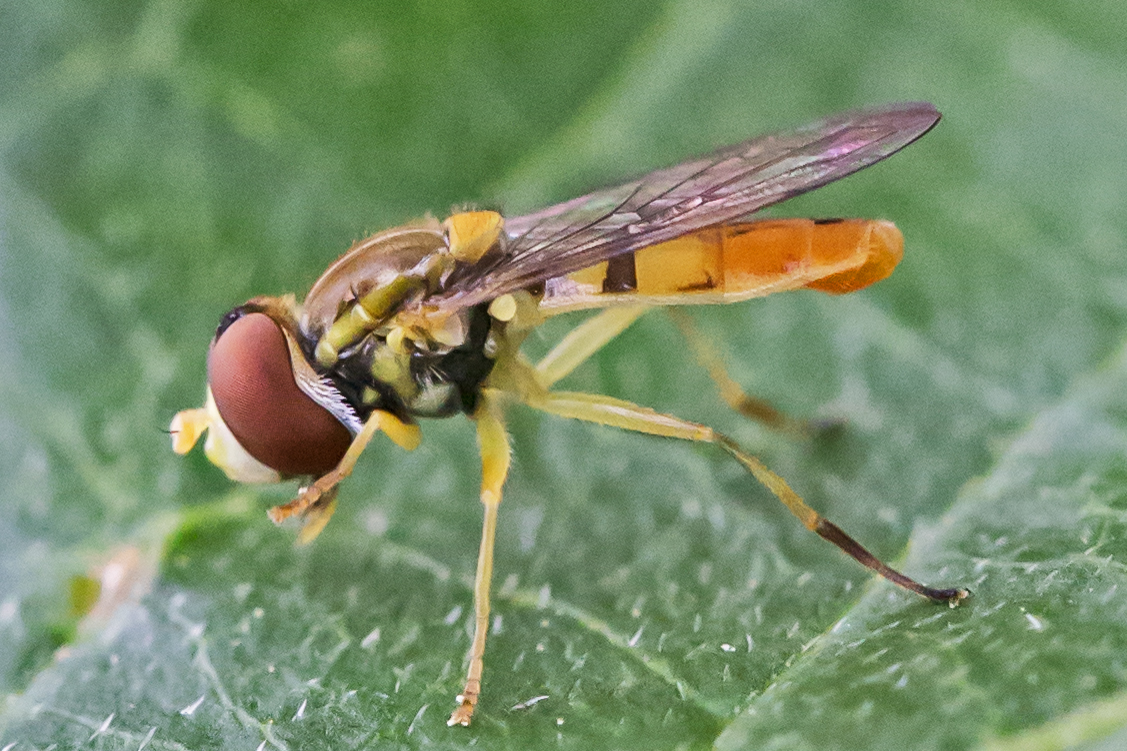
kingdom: Animalia
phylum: Arthropoda
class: Insecta
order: Diptera
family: Syrphidae
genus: Toxomerus
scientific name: Toxomerus marginatus
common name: Syrphid fly
